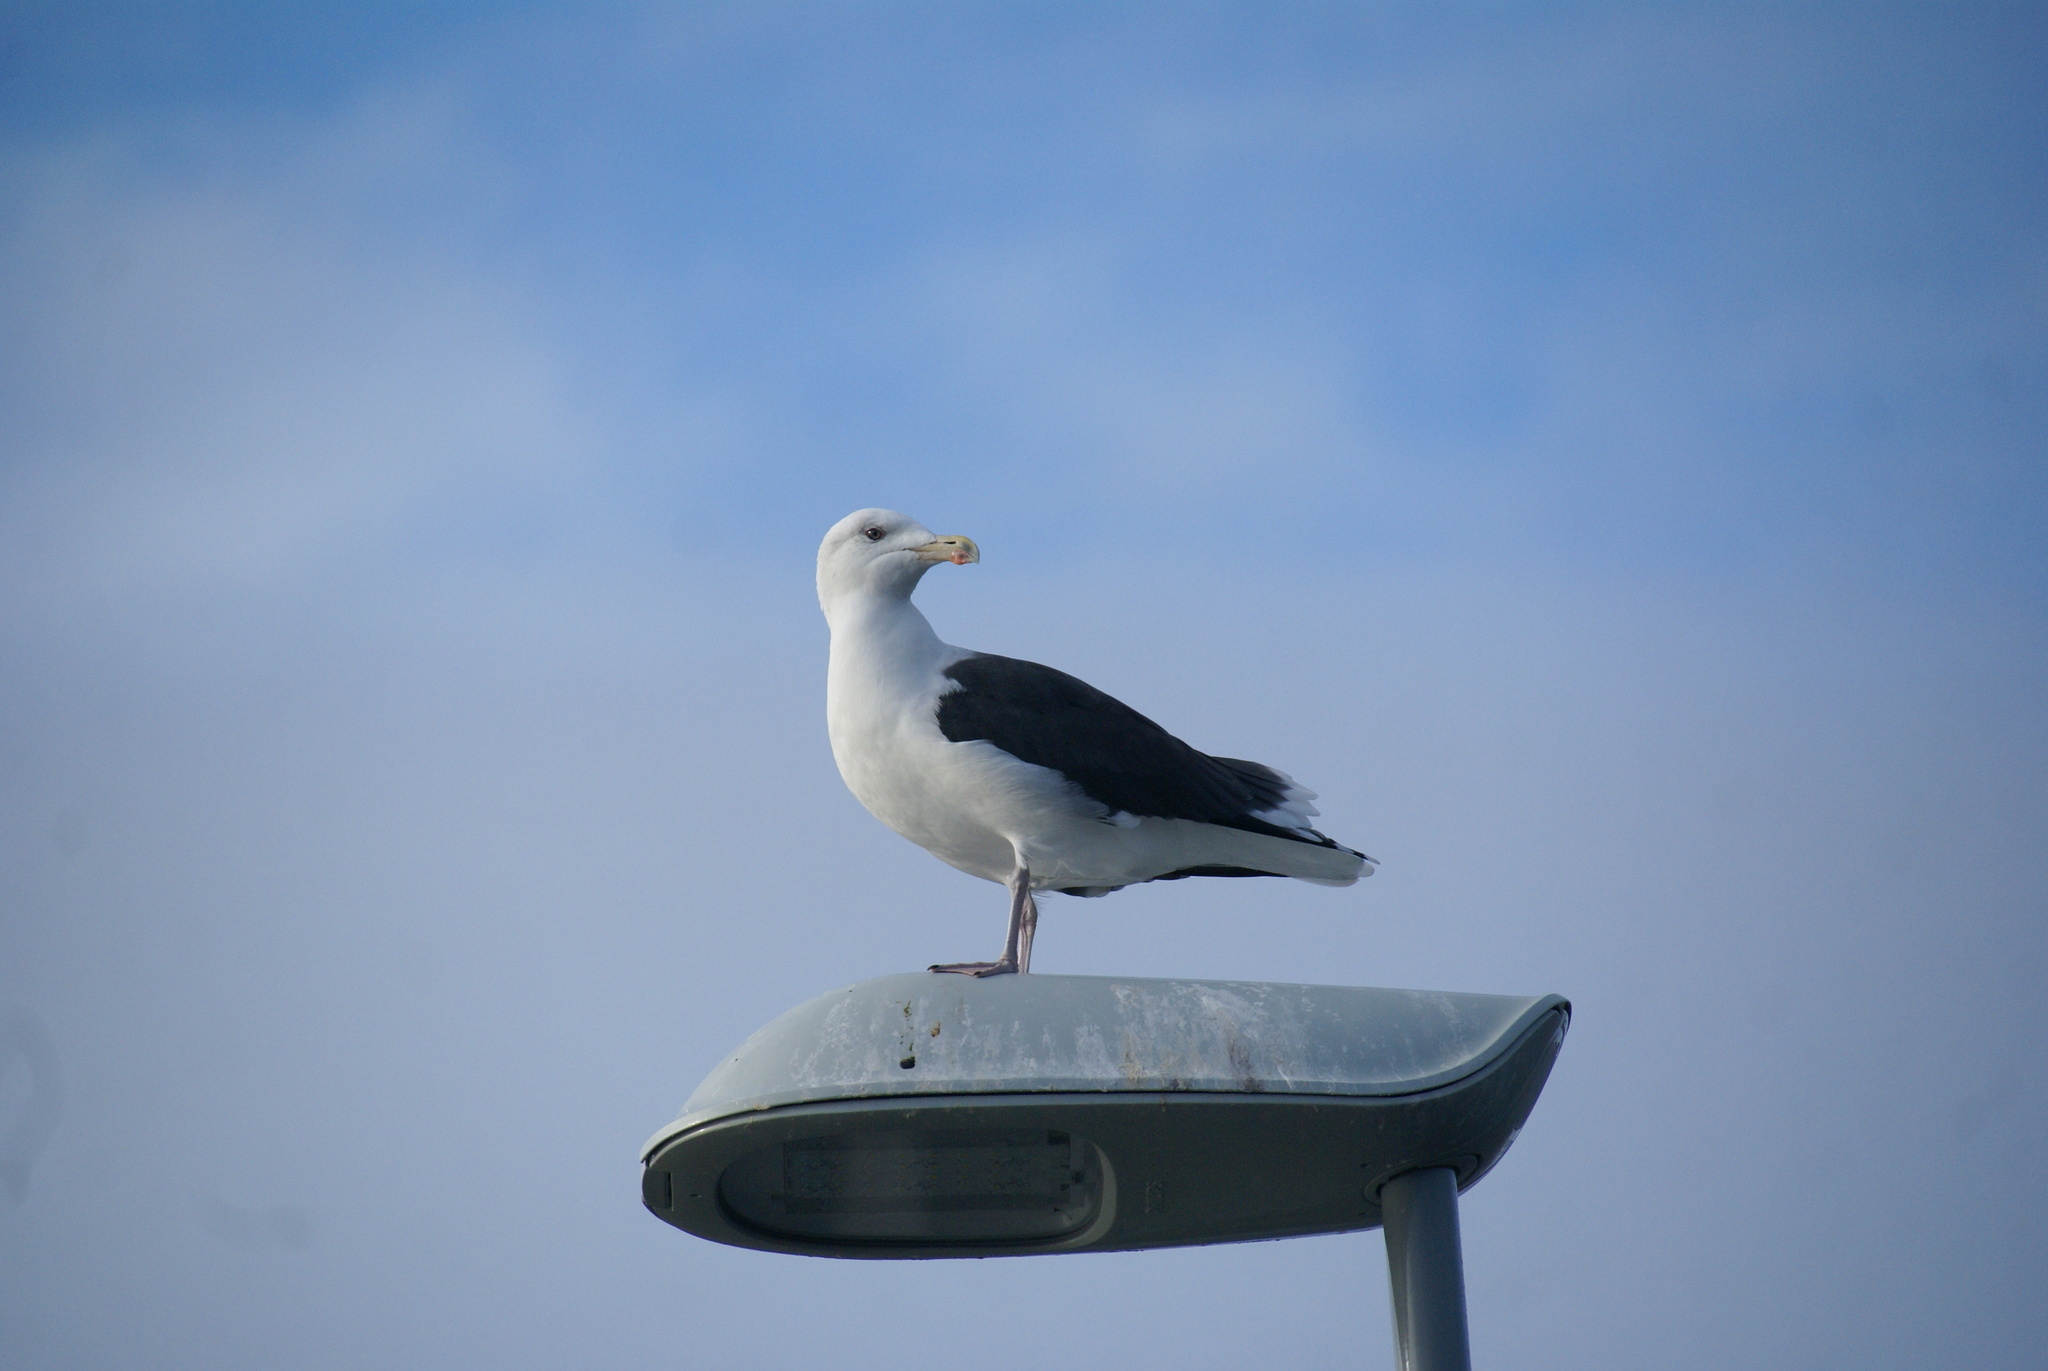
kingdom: Animalia
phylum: Chordata
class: Aves
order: Charadriiformes
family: Laridae
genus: Larus
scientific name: Larus marinus
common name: Great black-backed gull
